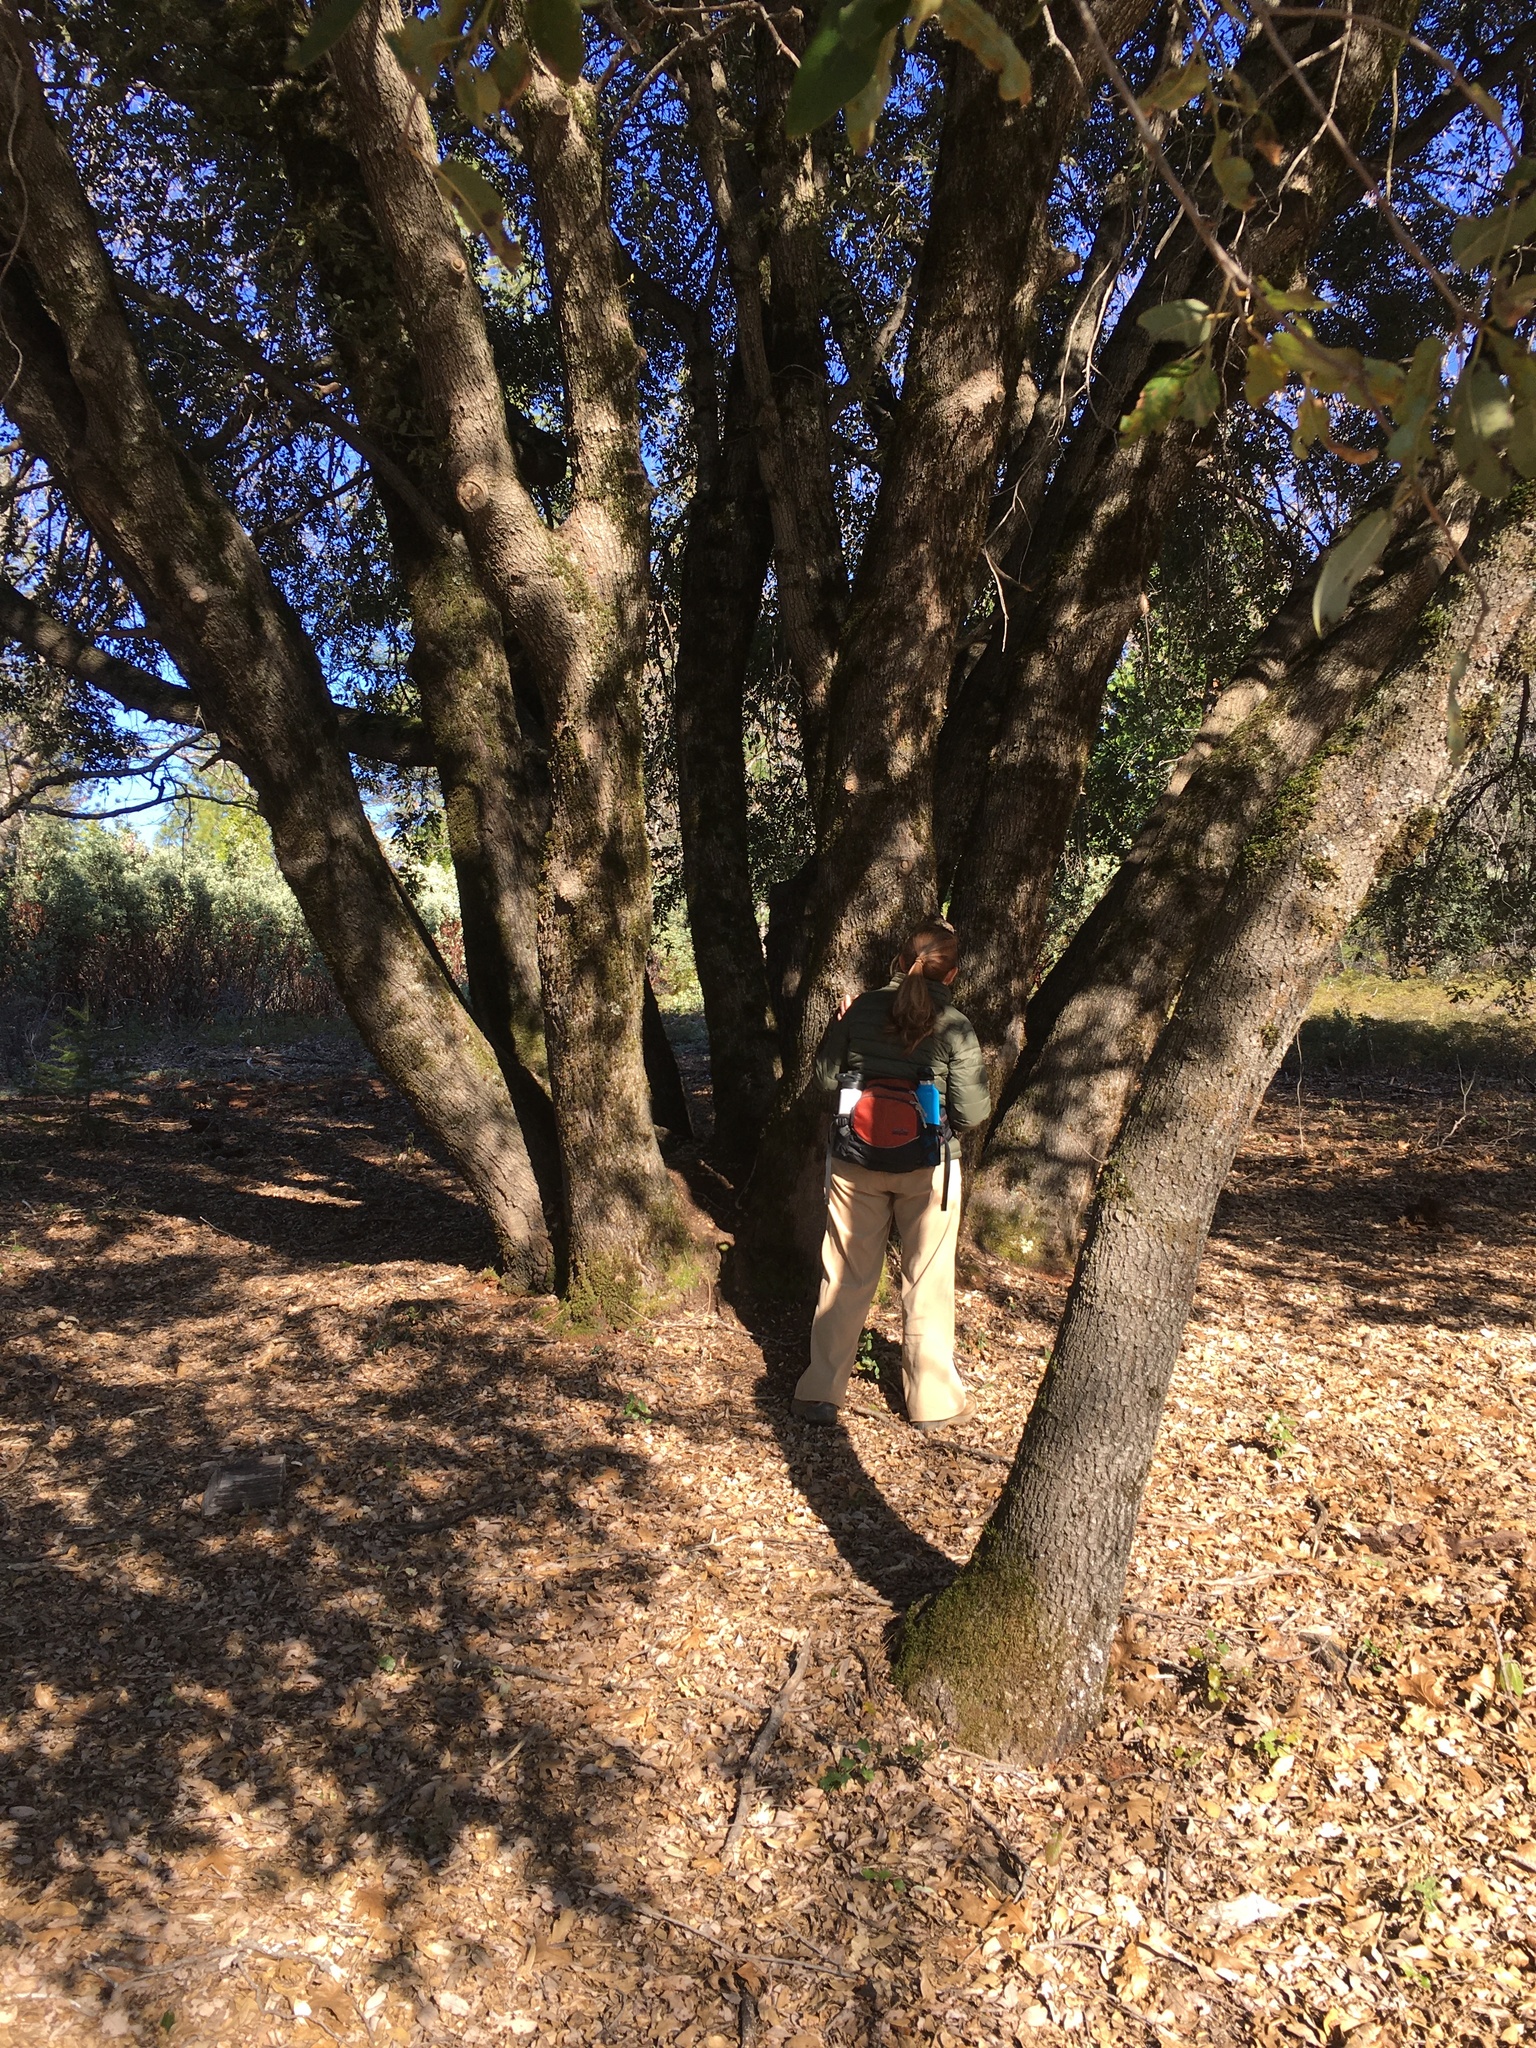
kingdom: Plantae
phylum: Tracheophyta
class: Magnoliopsida
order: Fagales
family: Fagaceae
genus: Quercus
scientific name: Quercus chrysolepis
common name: Canyon live oak
